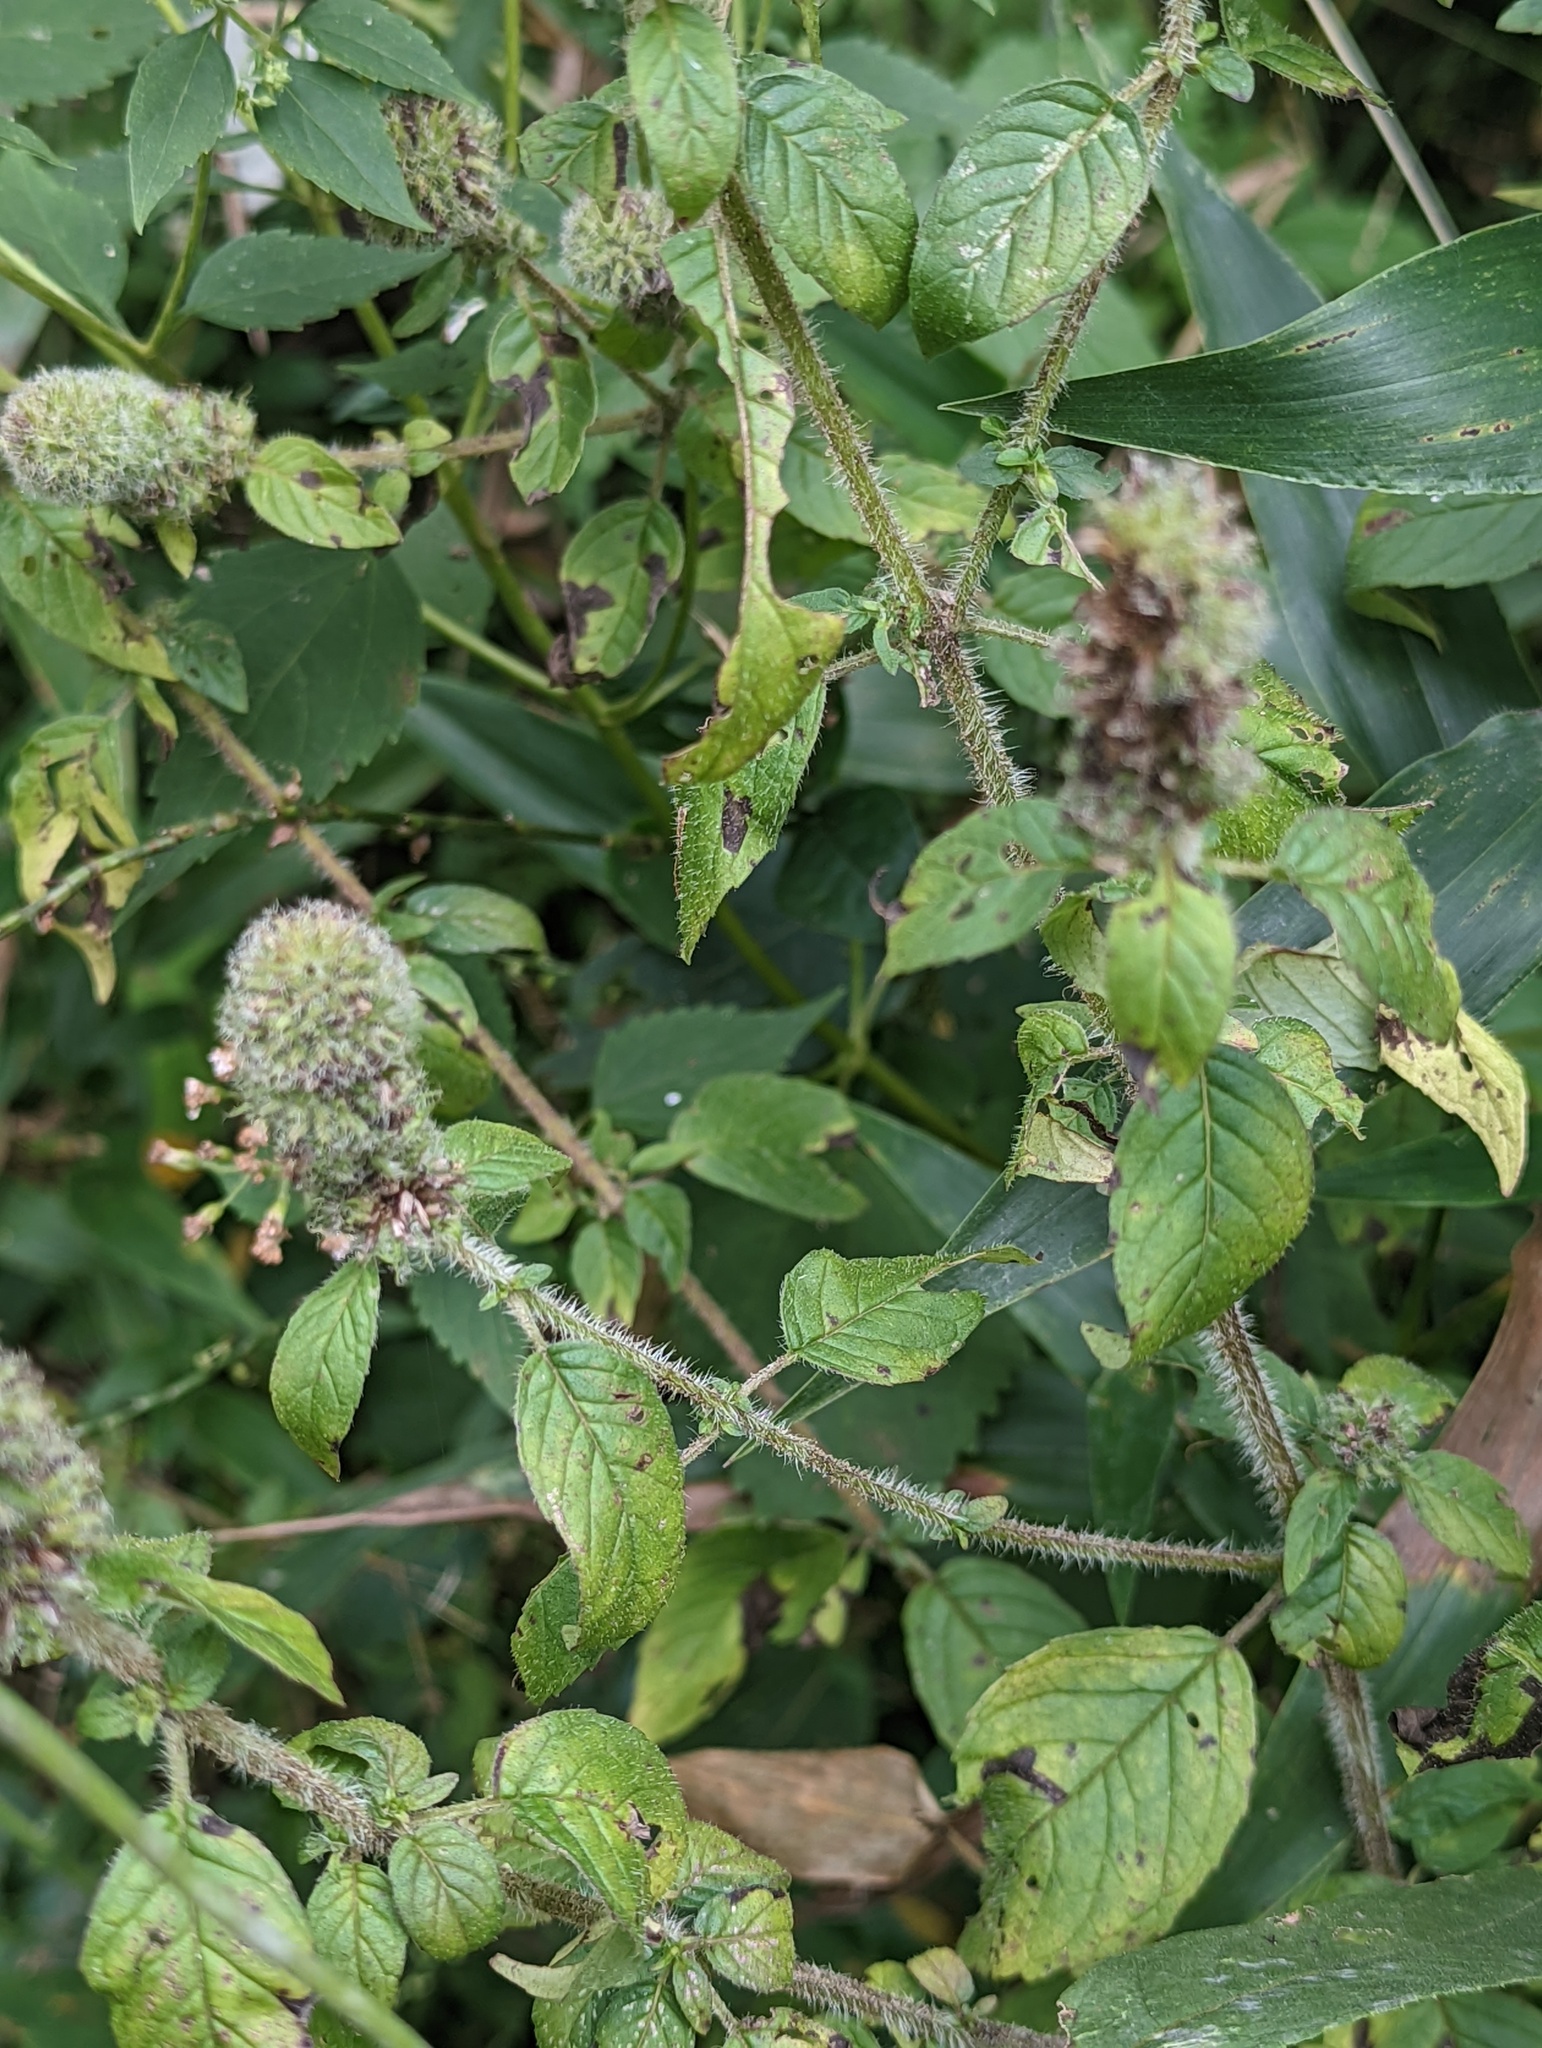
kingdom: Plantae
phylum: Tracheophyta
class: Magnoliopsida
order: Lamiales
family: Lamiaceae
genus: Blephilia
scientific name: Blephilia hirsuta
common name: Hairy blephilia
